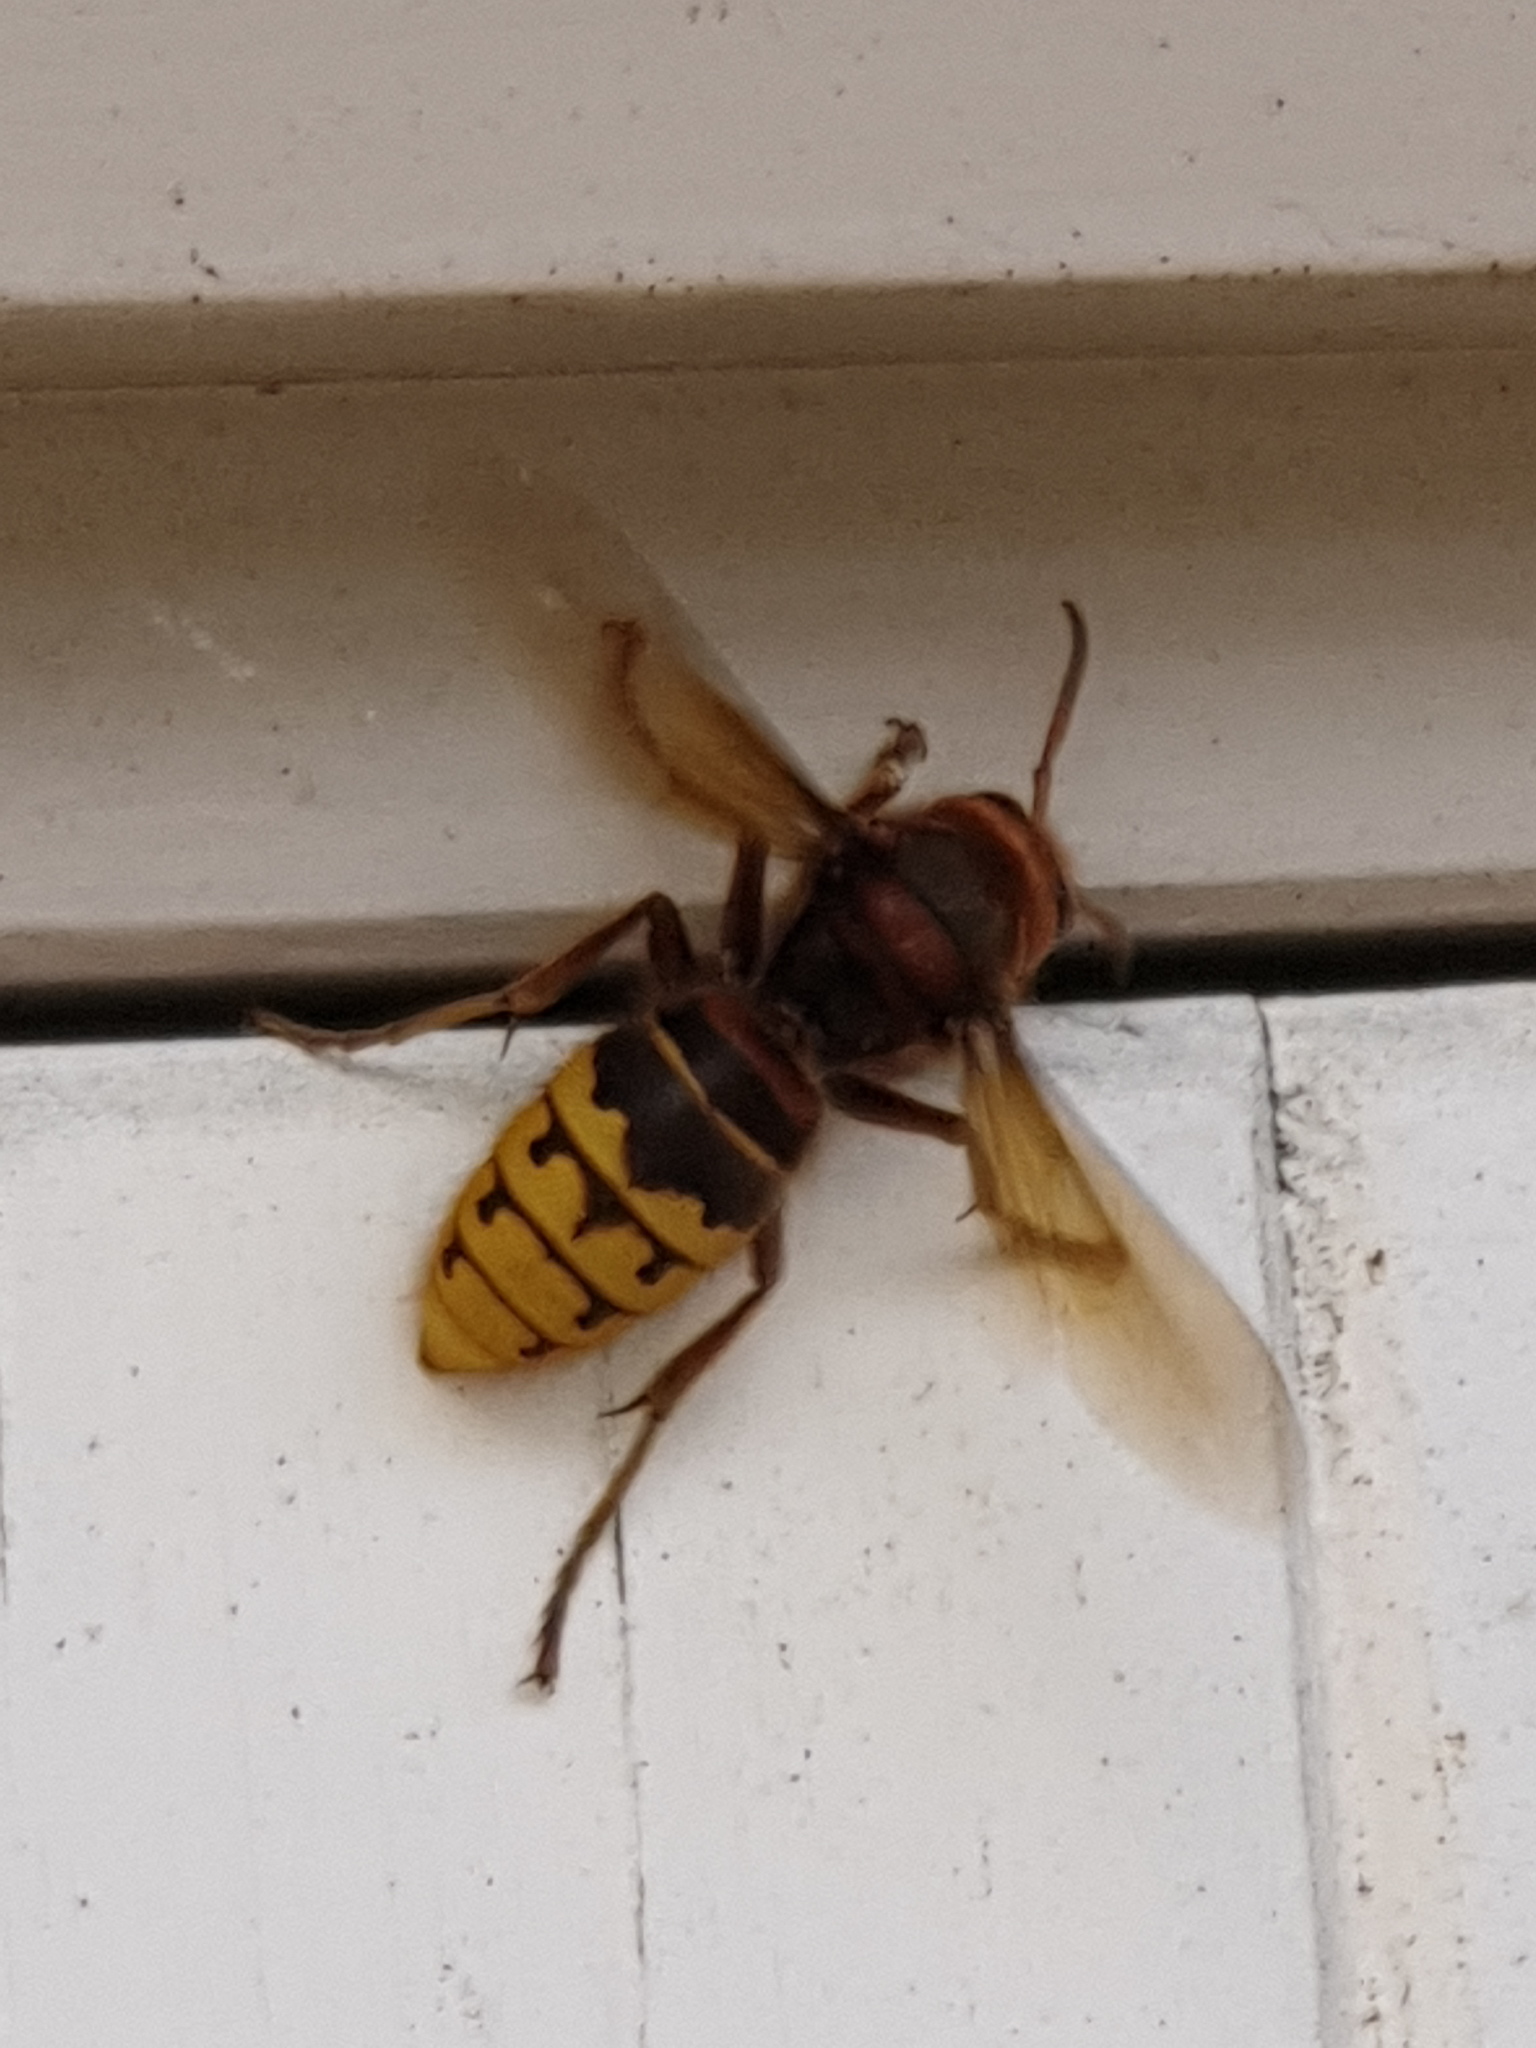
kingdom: Animalia
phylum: Arthropoda
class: Insecta
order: Hymenoptera
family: Vespidae
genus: Vespa
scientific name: Vespa crabro
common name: Hornet
